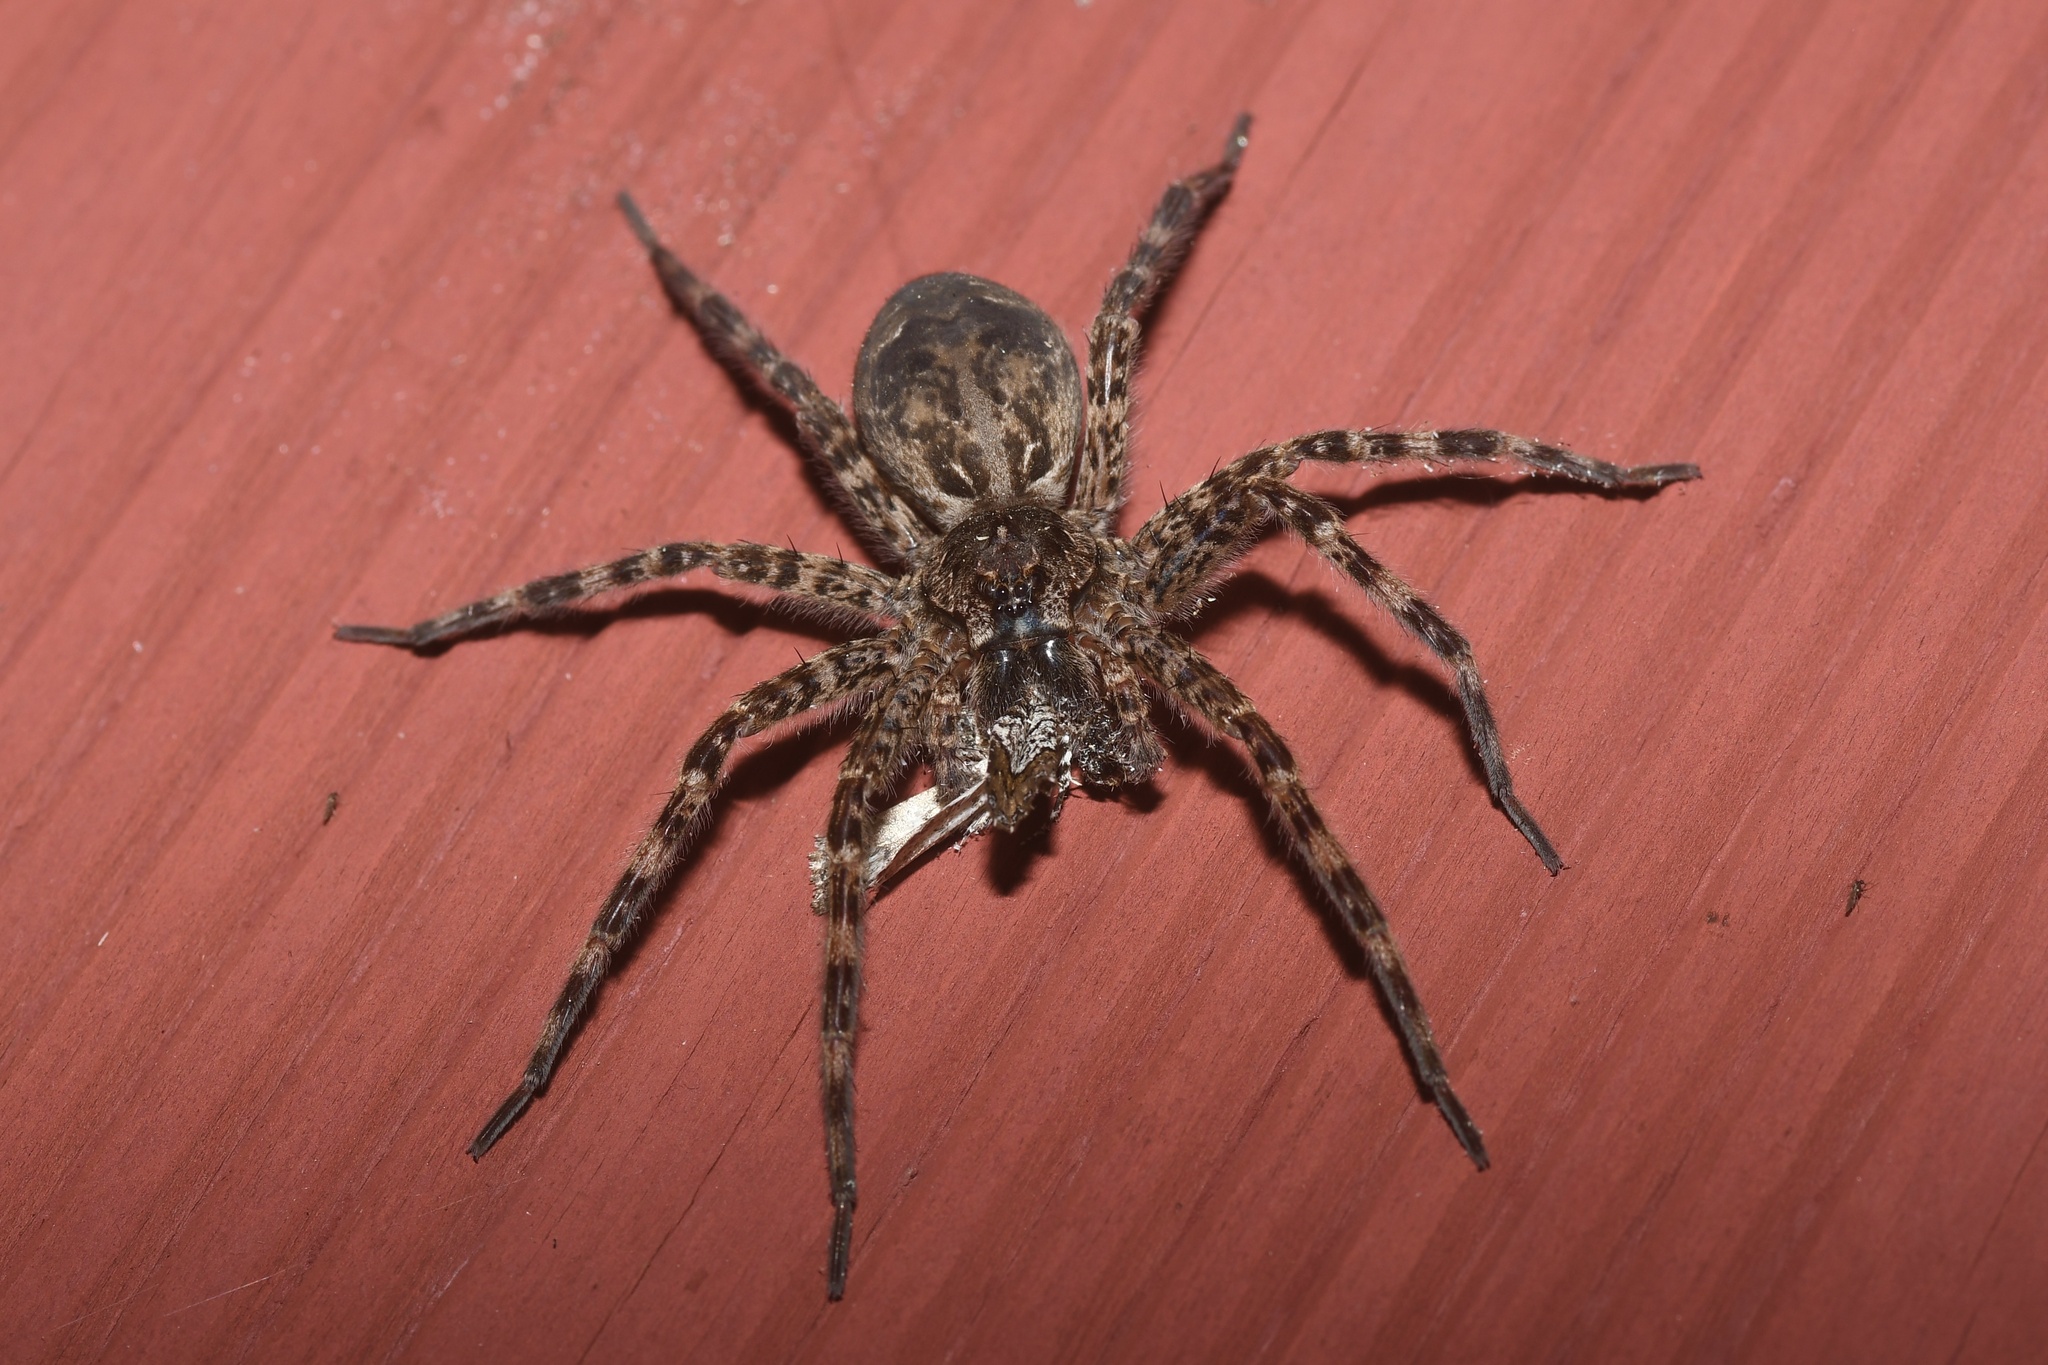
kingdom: Animalia
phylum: Arthropoda
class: Arachnida
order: Araneae
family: Pisauridae
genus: Dolomedes
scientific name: Dolomedes tenebrosus
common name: Dark fishing spider
